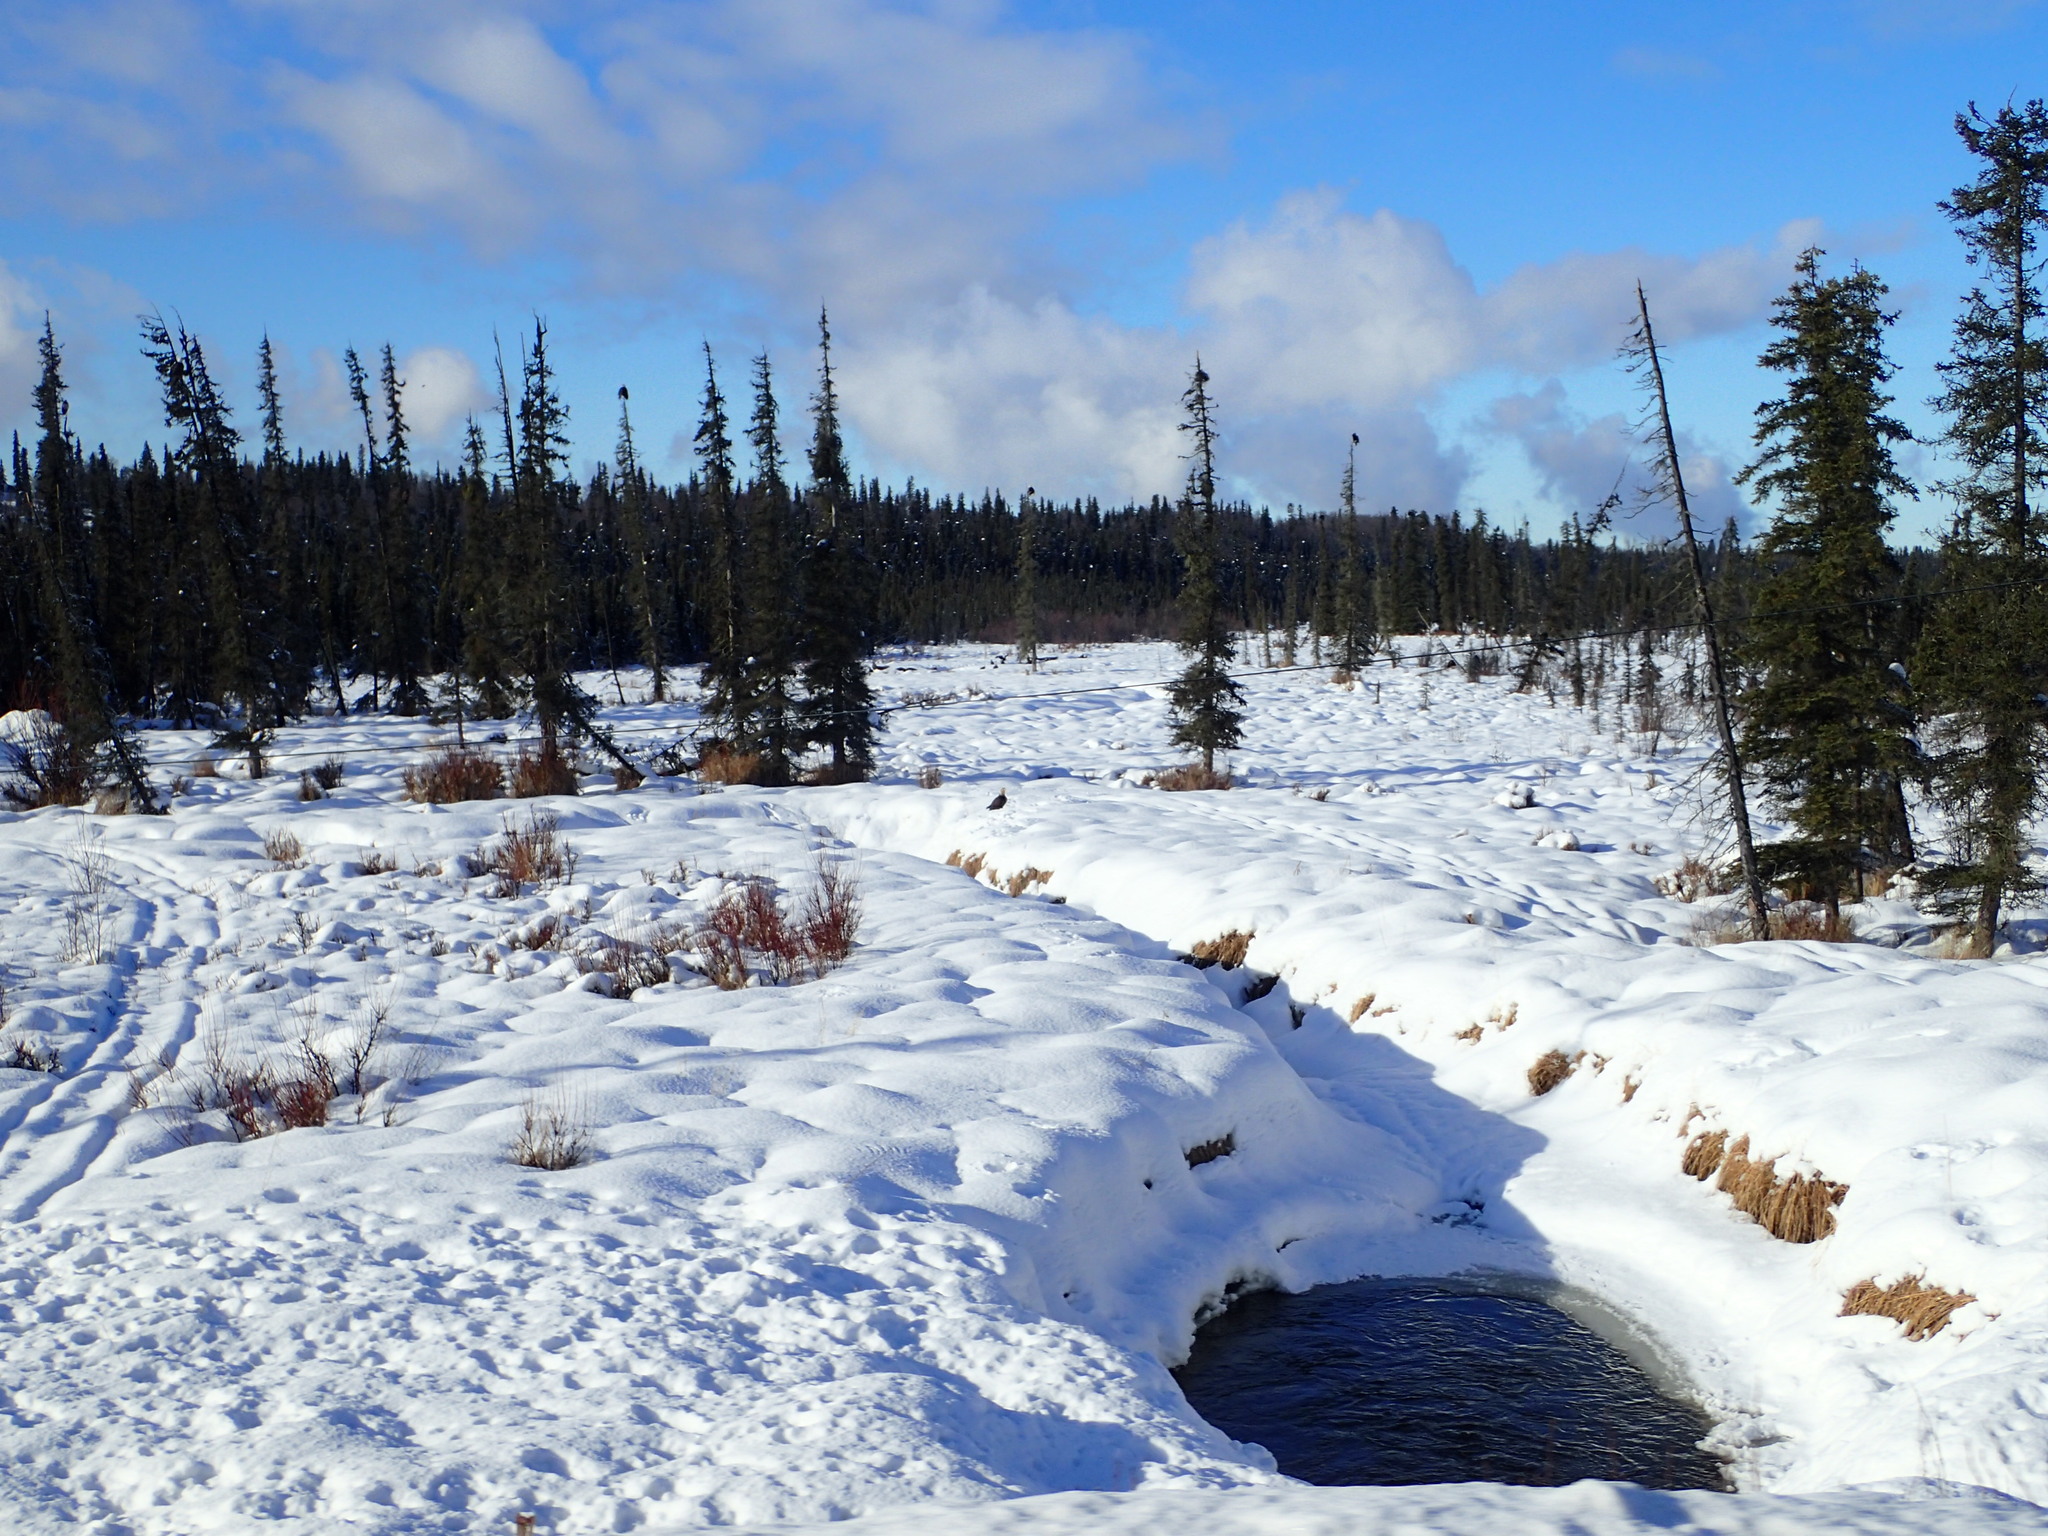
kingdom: Animalia
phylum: Chordata
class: Aves
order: Accipitriformes
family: Accipitridae
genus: Haliaeetus
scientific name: Haliaeetus leucocephalus
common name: Bald eagle
